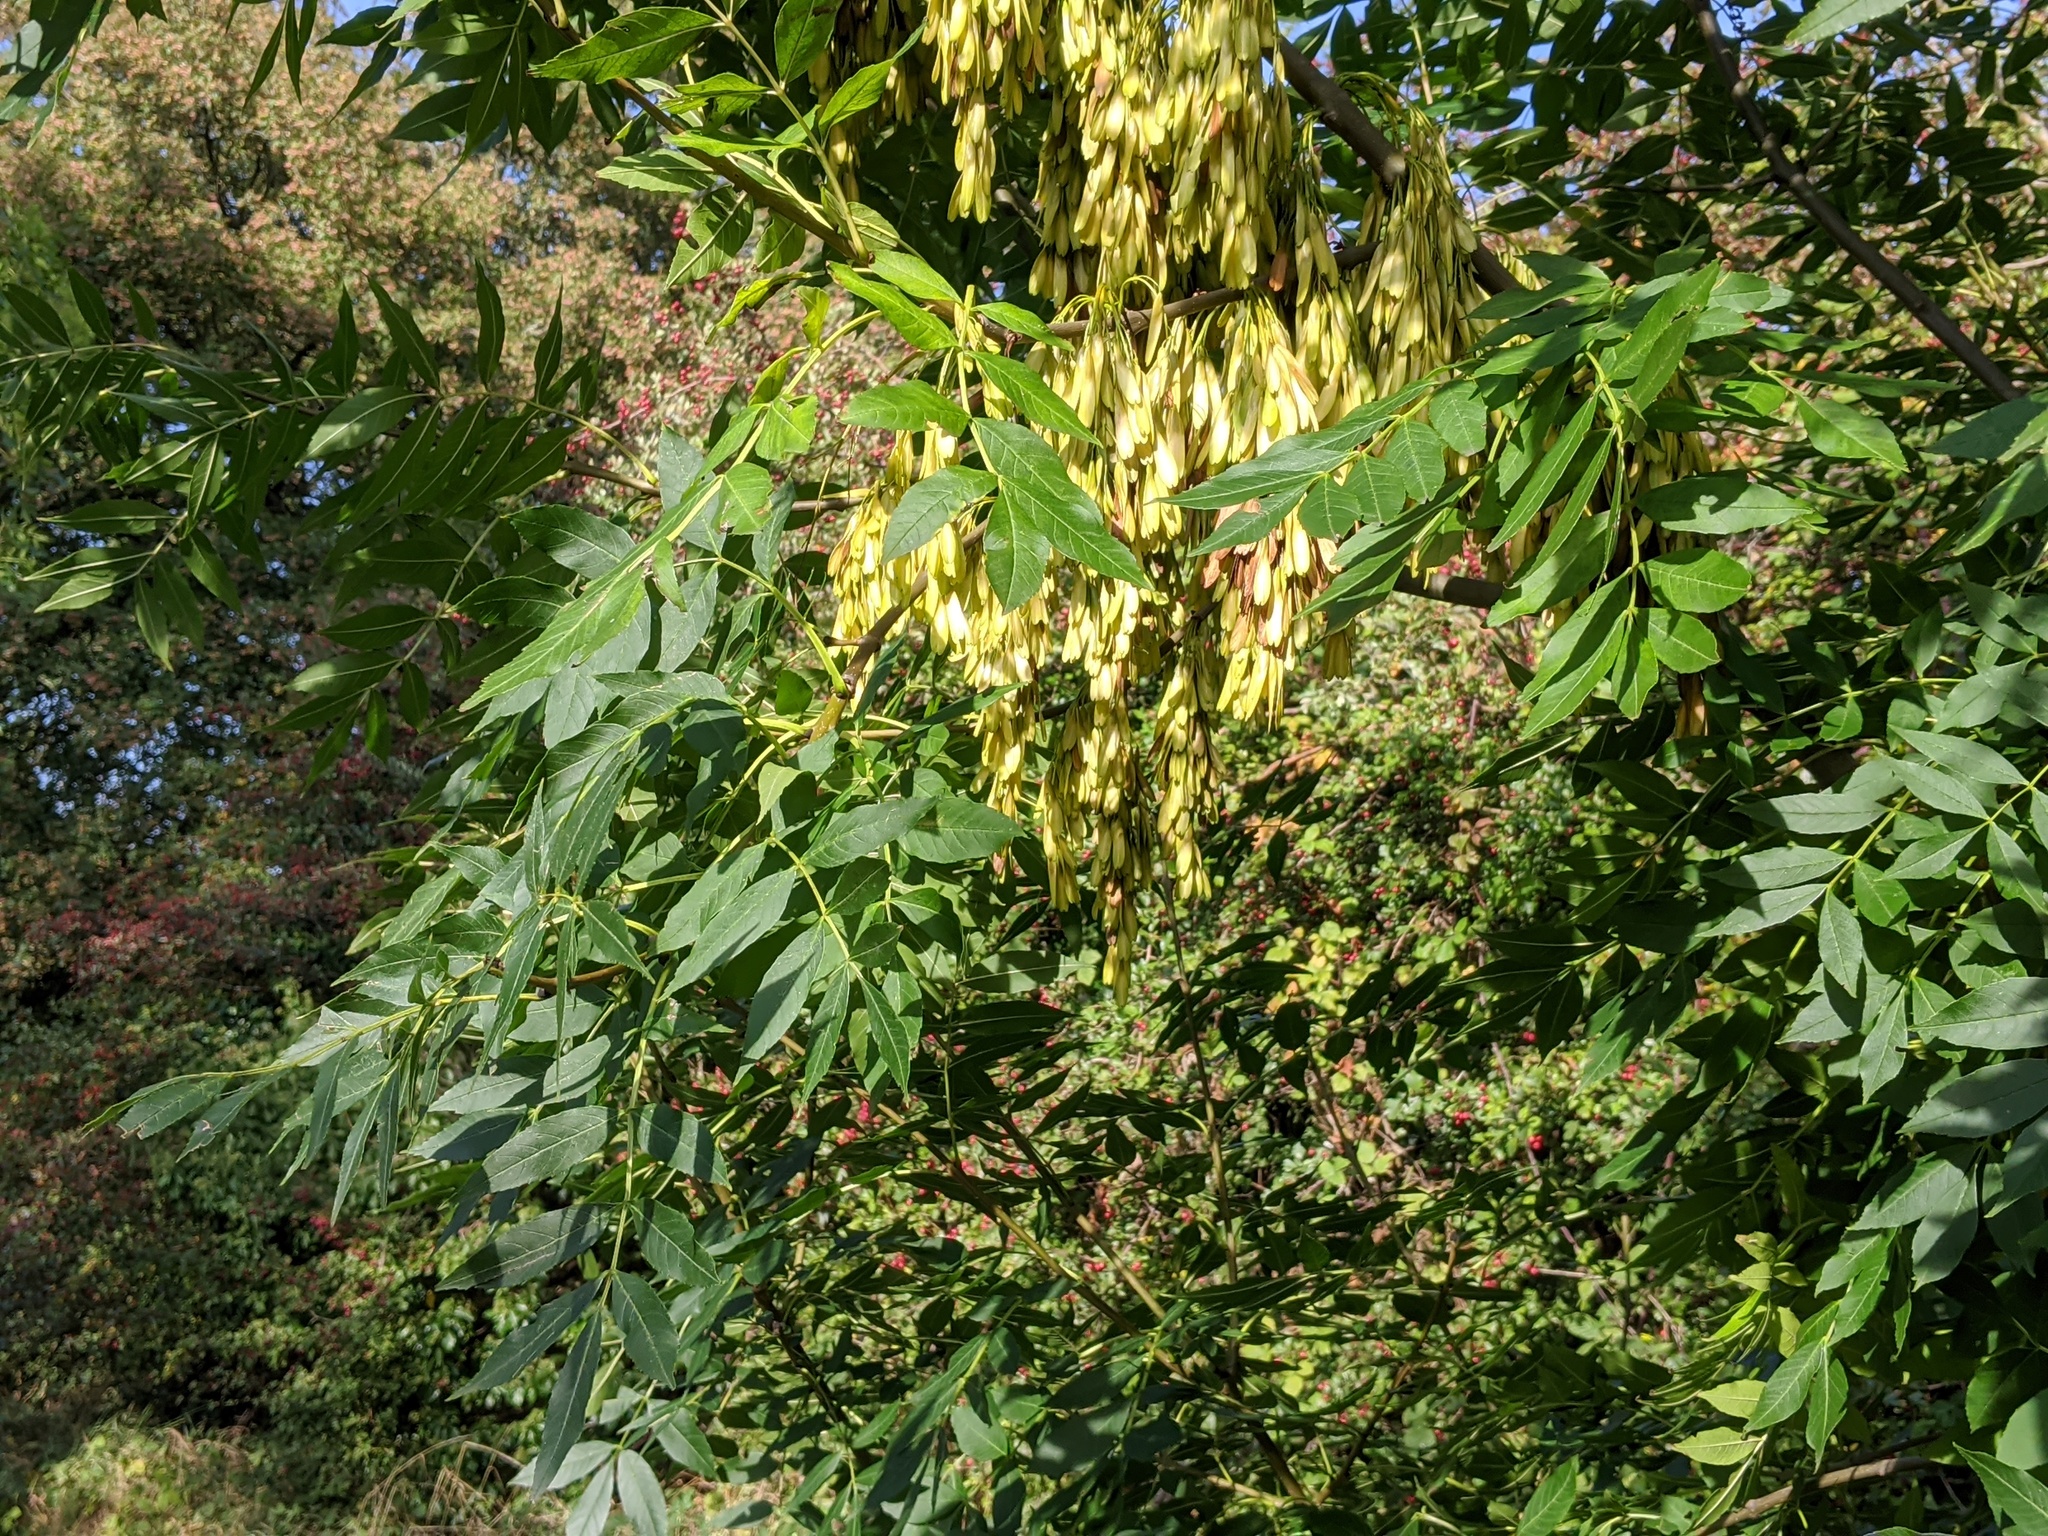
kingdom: Plantae
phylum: Tracheophyta
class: Magnoliopsida
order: Lamiales
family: Oleaceae
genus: Fraxinus
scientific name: Fraxinus excelsior
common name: European ash
